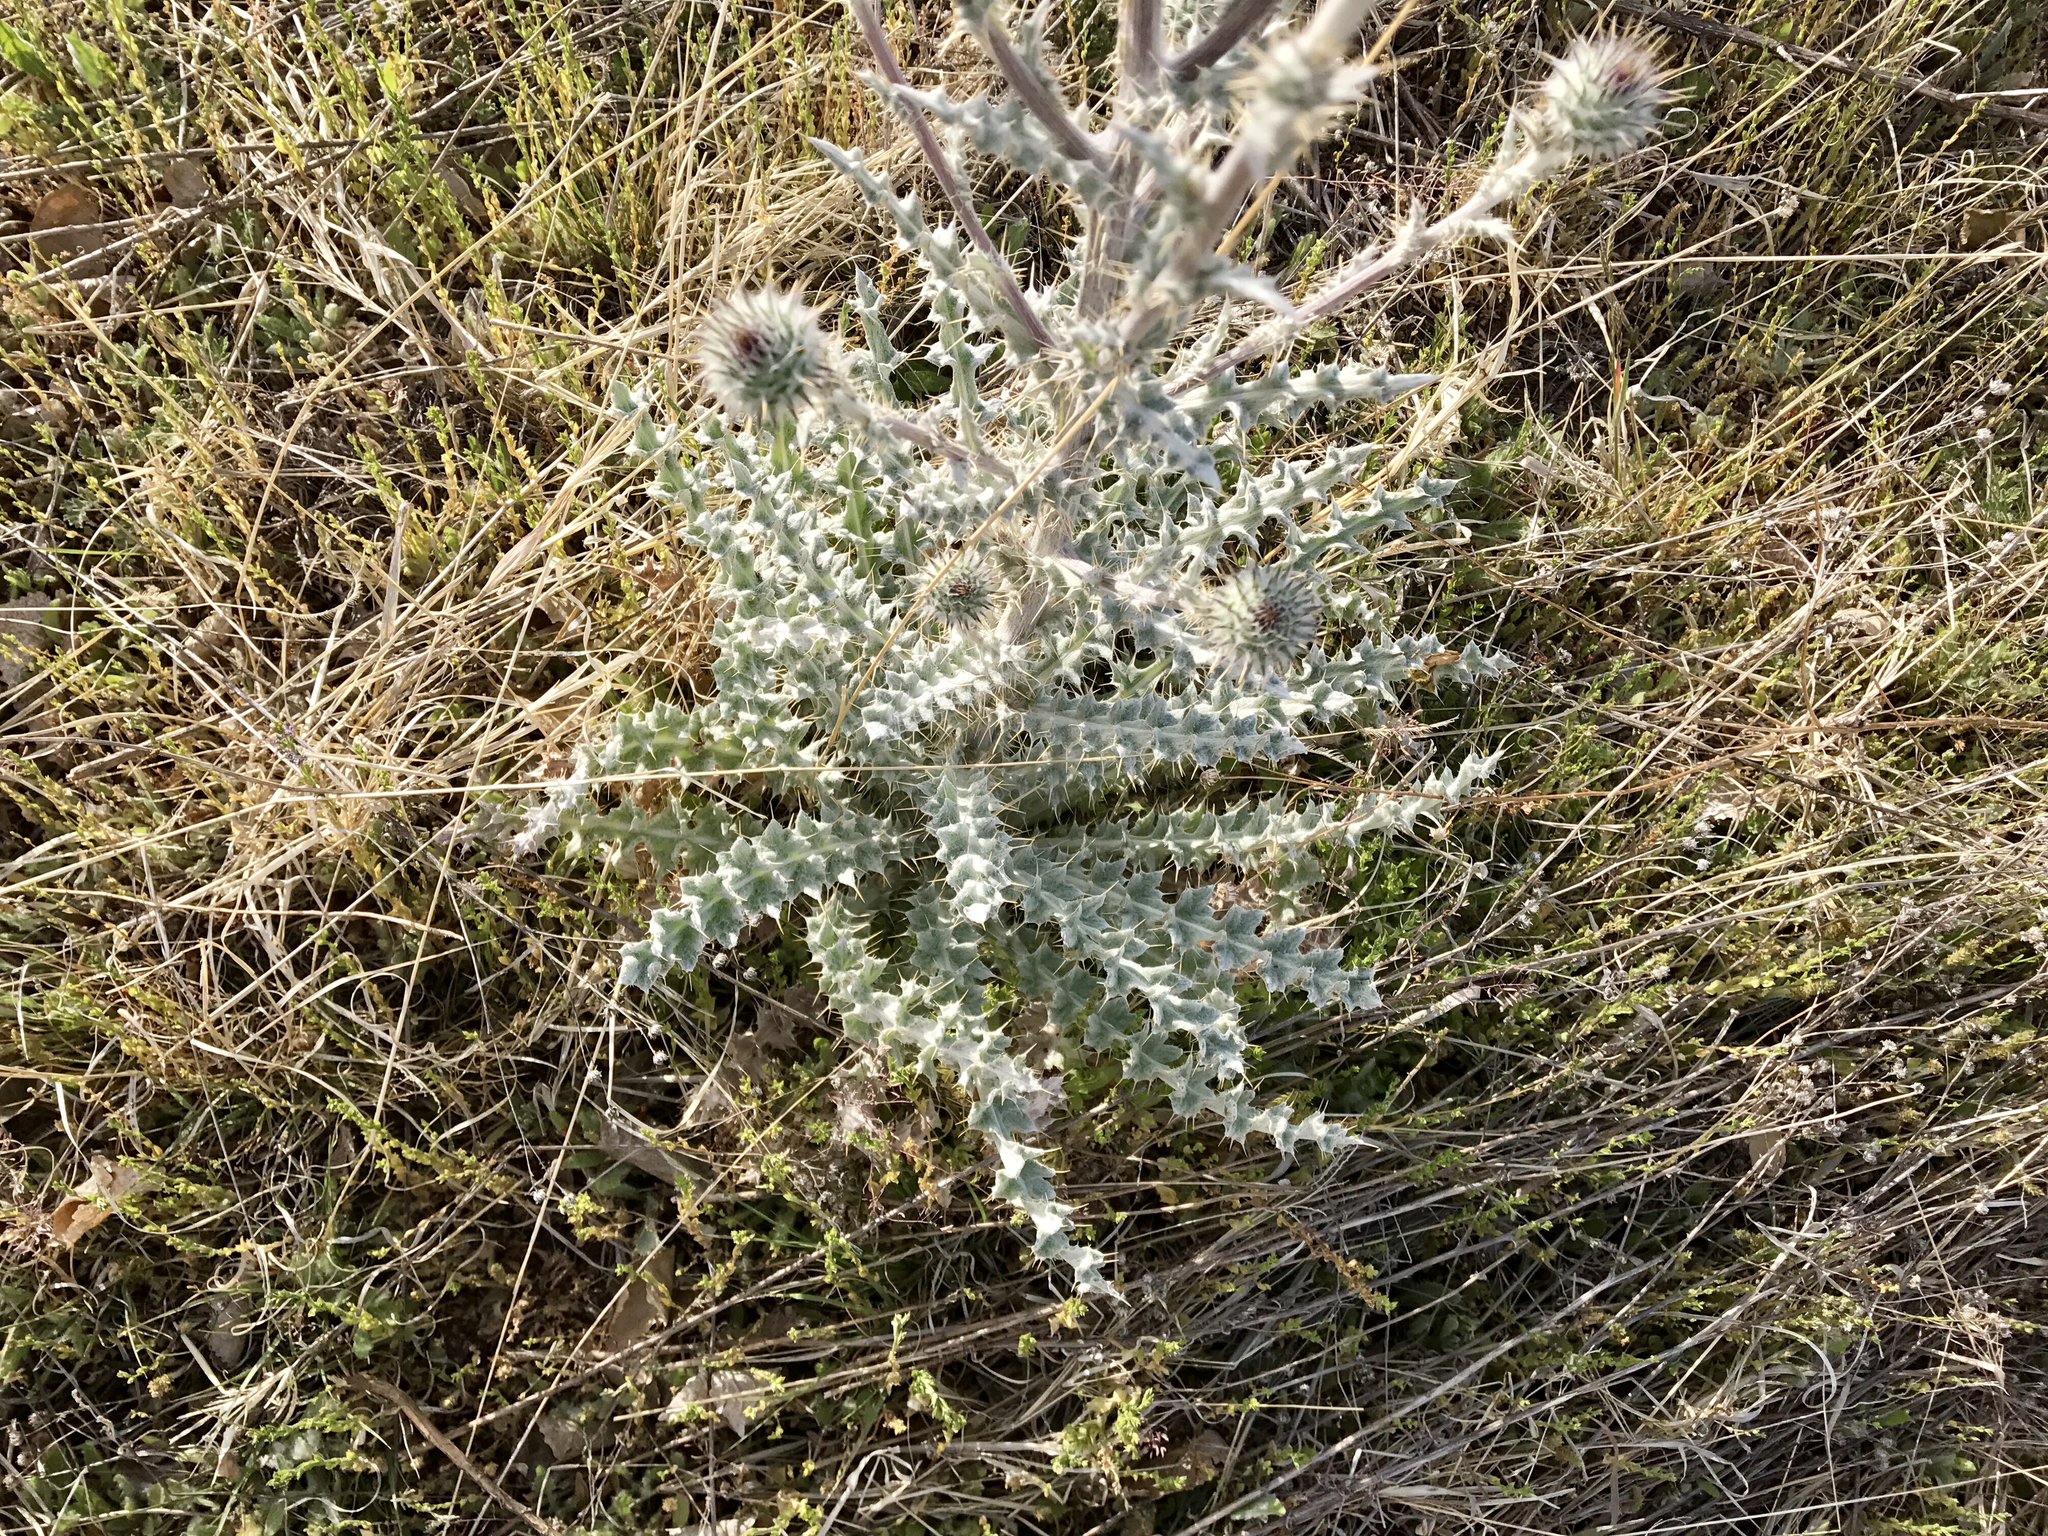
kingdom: Plantae
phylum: Tracheophyta
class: Magnoliopsida
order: Asterales
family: Asteraceae
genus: Cirsium
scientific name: Cirsium neomexicanum
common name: New mexico thistle
